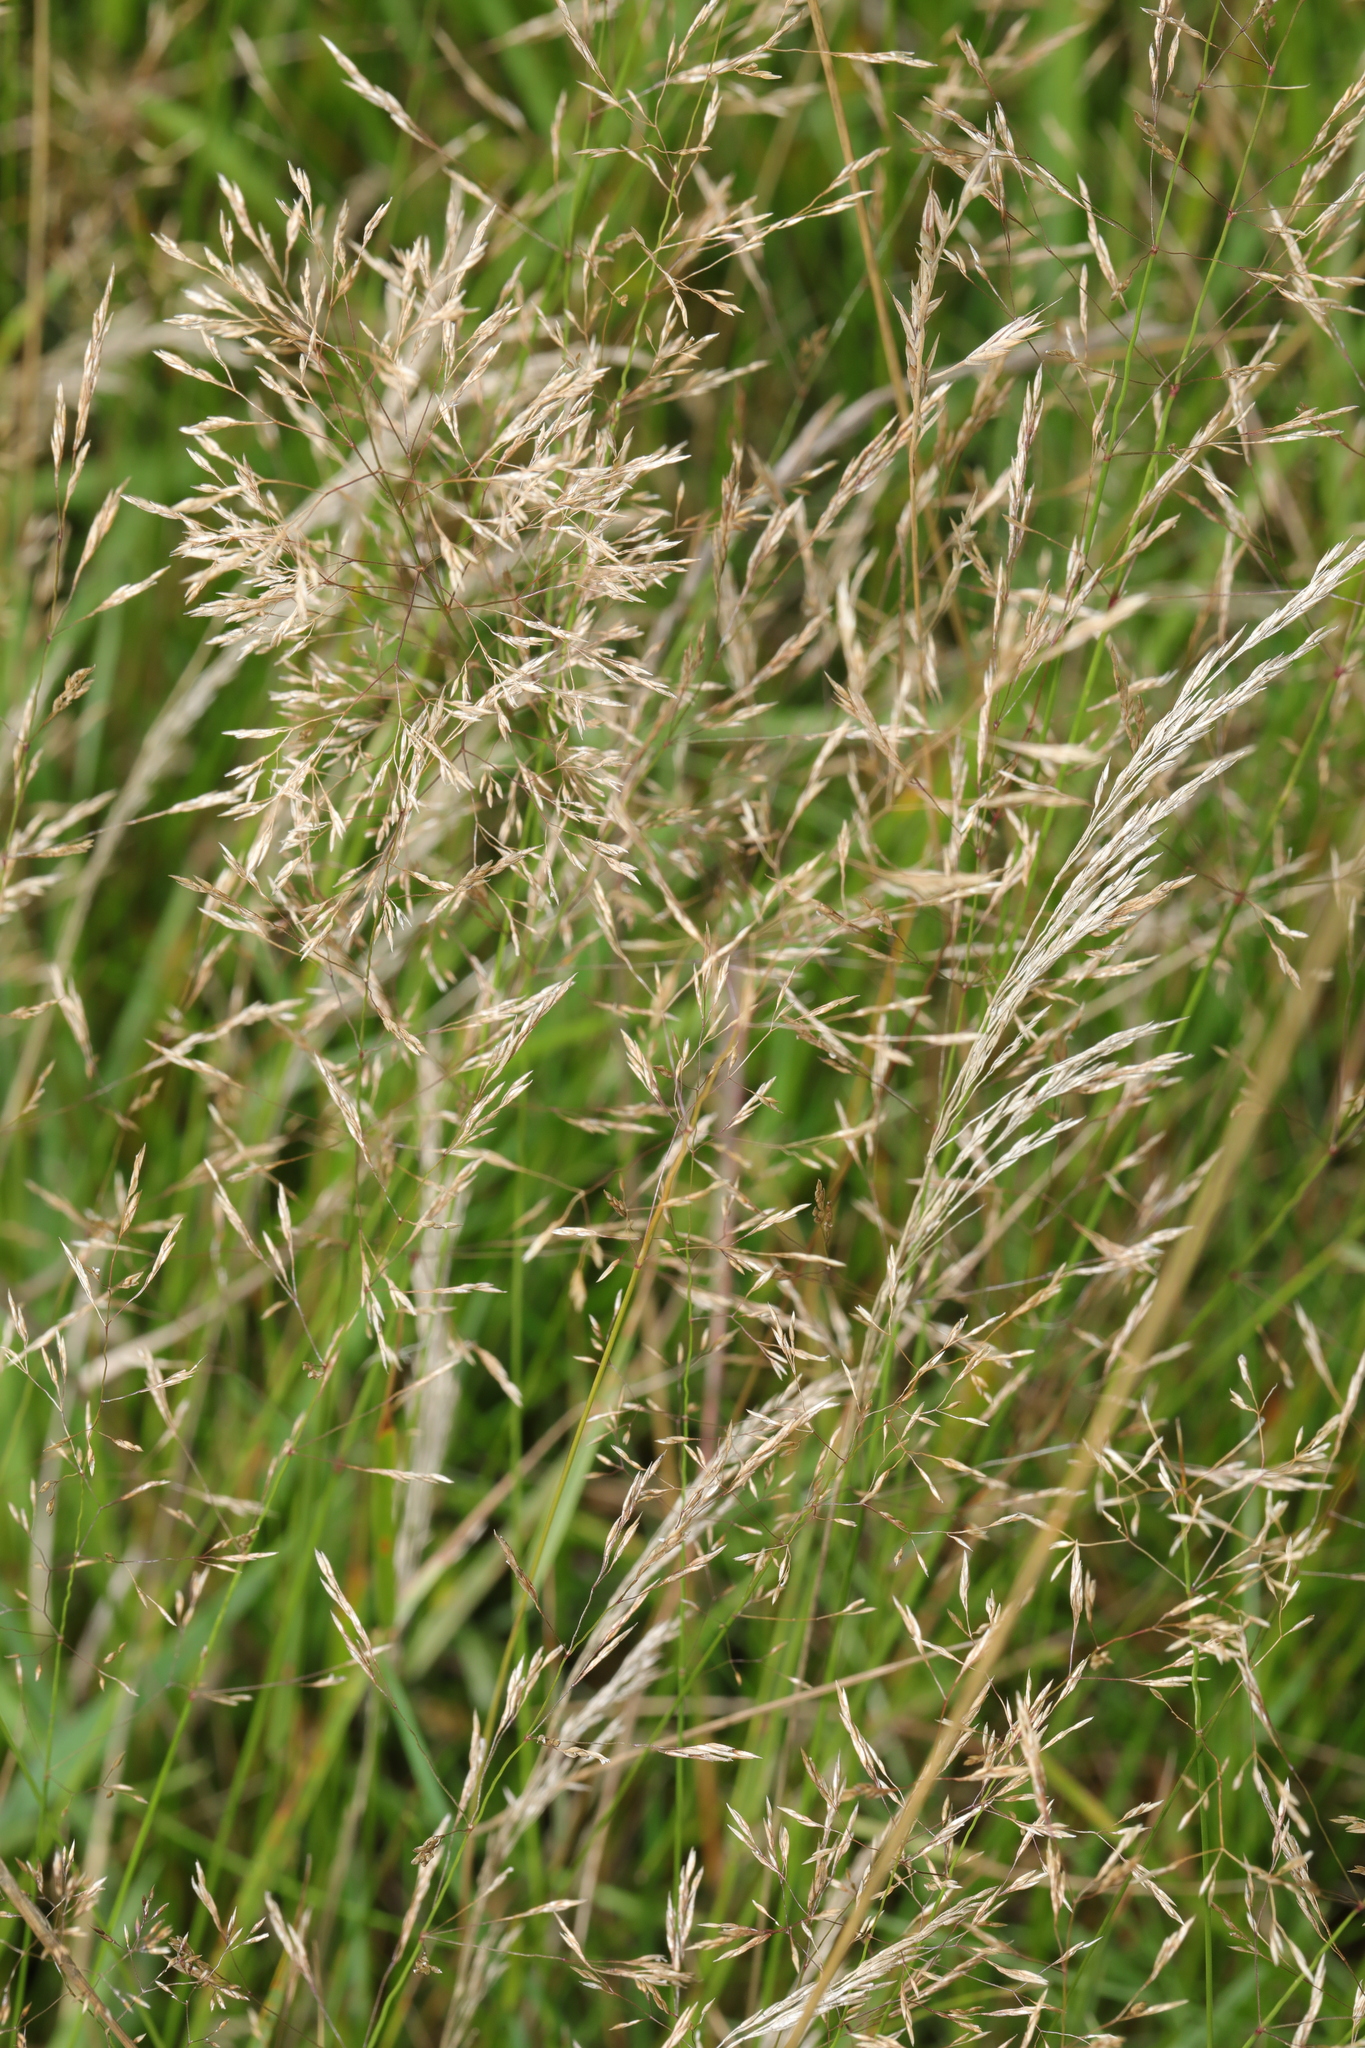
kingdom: Plantae
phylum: Tracheophyta
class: Liliopsida
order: Poales
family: Poaceae
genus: Agrostis
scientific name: Agrostis capillaris
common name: Colonial bentgrass
